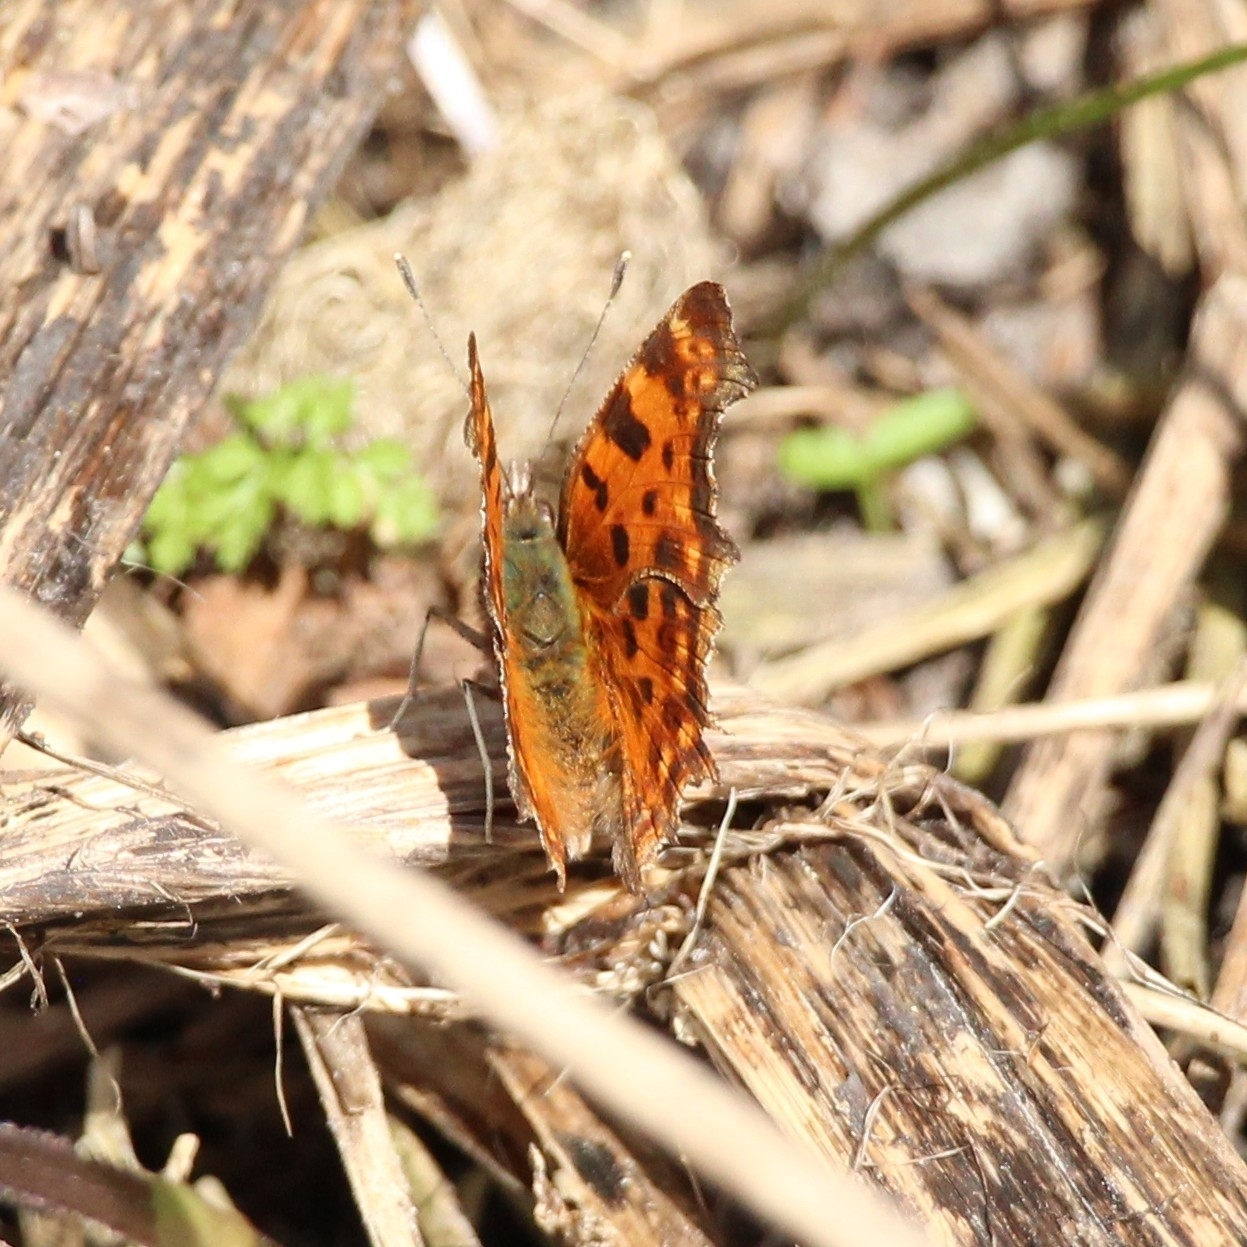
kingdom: Animalia
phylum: Arthropoda
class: Insecta
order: Lepidoptera
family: Nymphalidae
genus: Polygonia
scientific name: Polygonia c-album
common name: Comma
